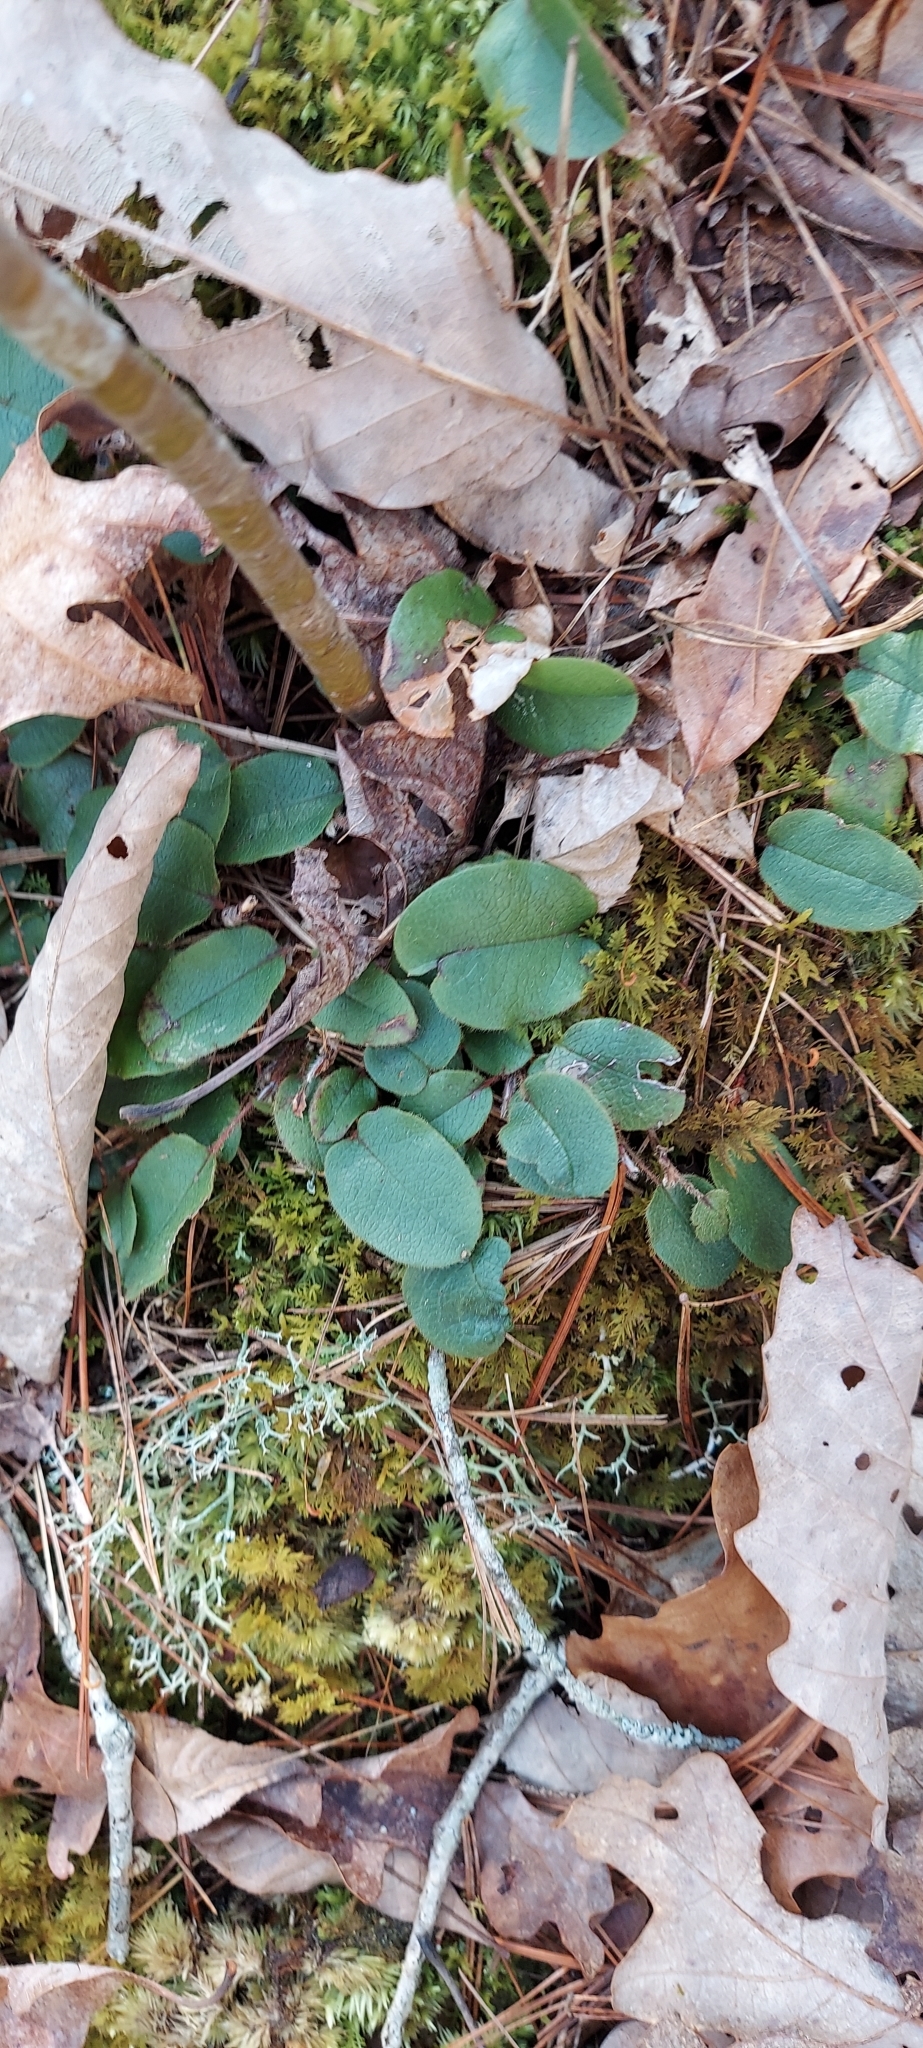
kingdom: Plantae
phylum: Tracheophyta
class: Magnoliopsida
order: Ericales
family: Ericaceae
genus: Epigaea
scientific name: Epigaea repens
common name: Gravelroot
